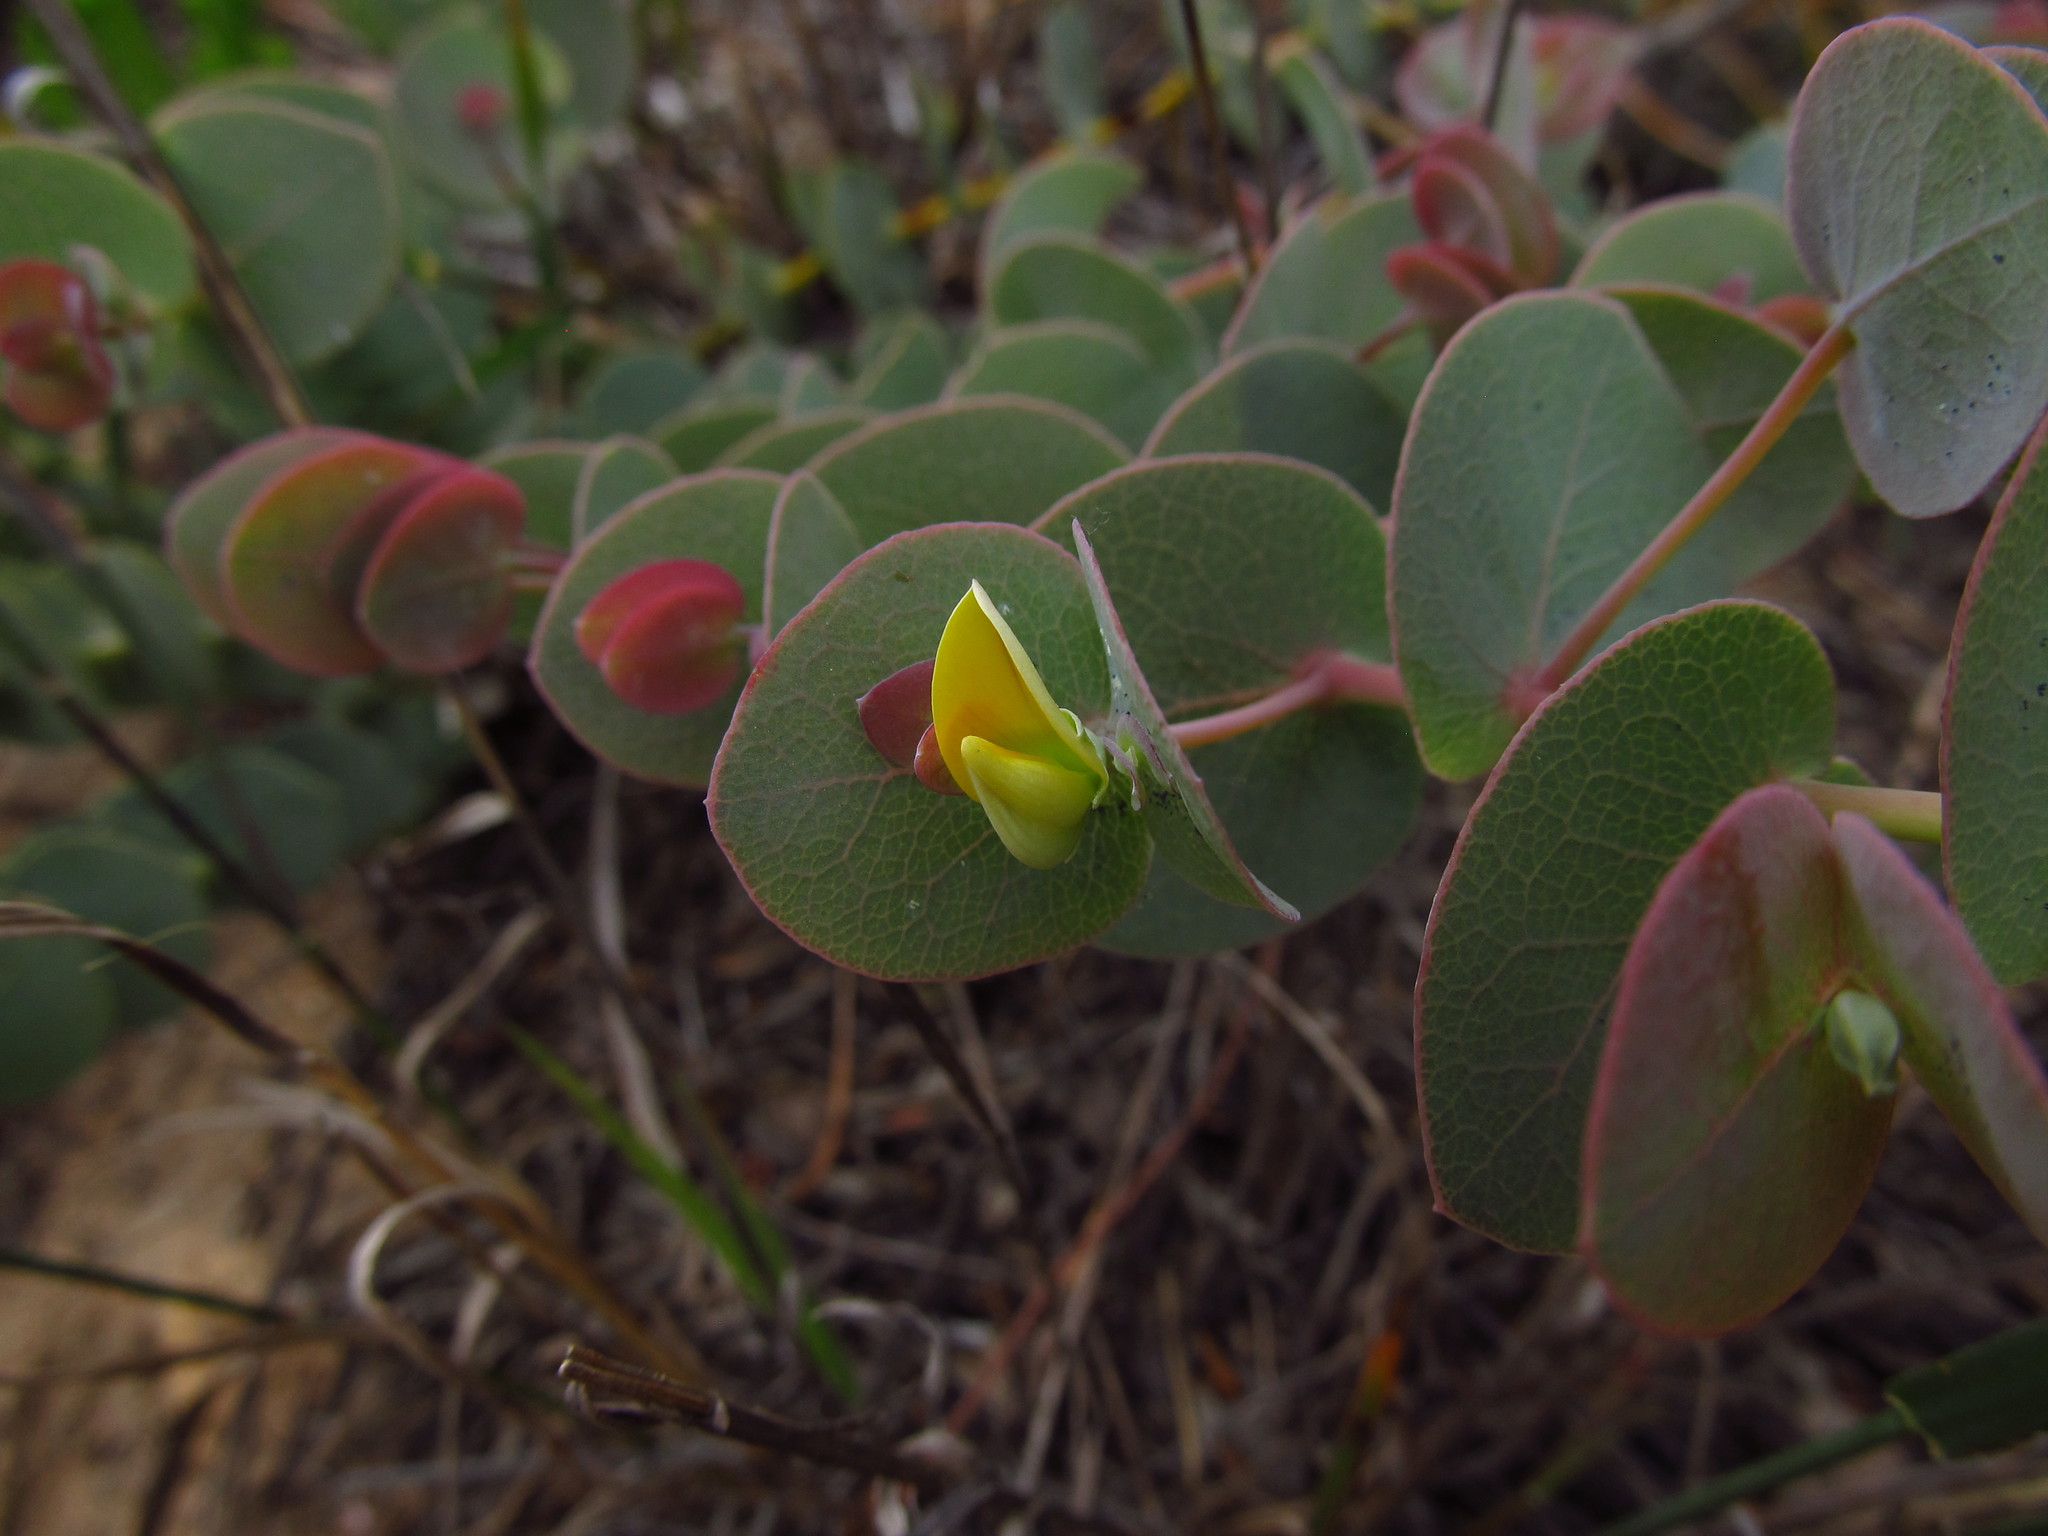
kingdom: Plantae
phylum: Tracheophyta
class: Magnoliopsida
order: Fabales
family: Fabaceae
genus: Rafnia
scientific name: Rafnia acuminata
